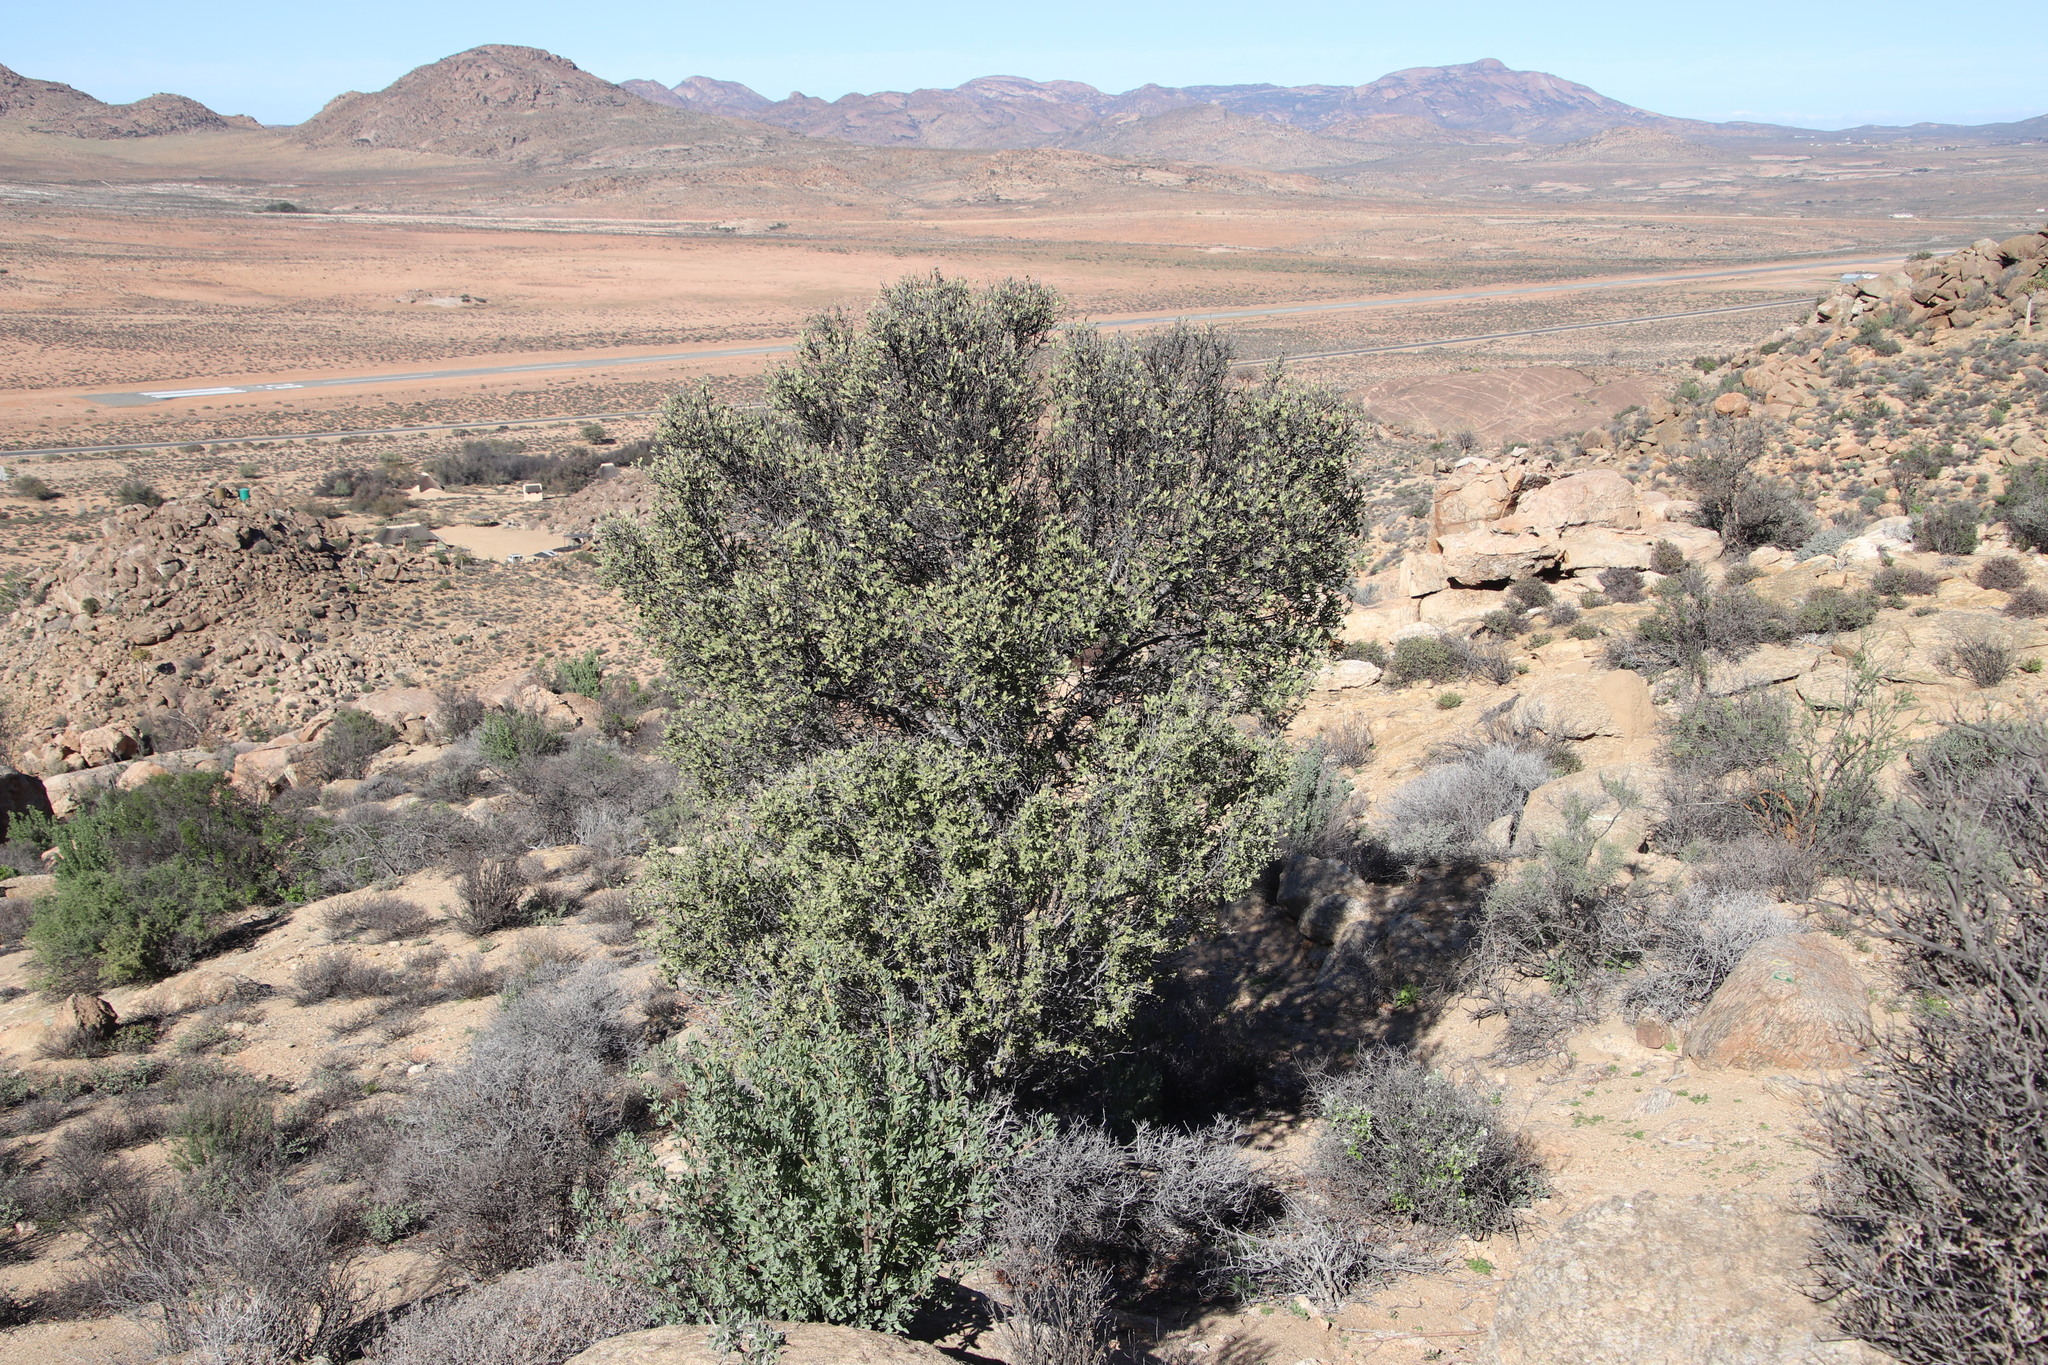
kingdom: Plantae
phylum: Tracheophyta
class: Magnoliopsida
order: Sapindales
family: Sapindaceae
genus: Pappea
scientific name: Pappea capensis
